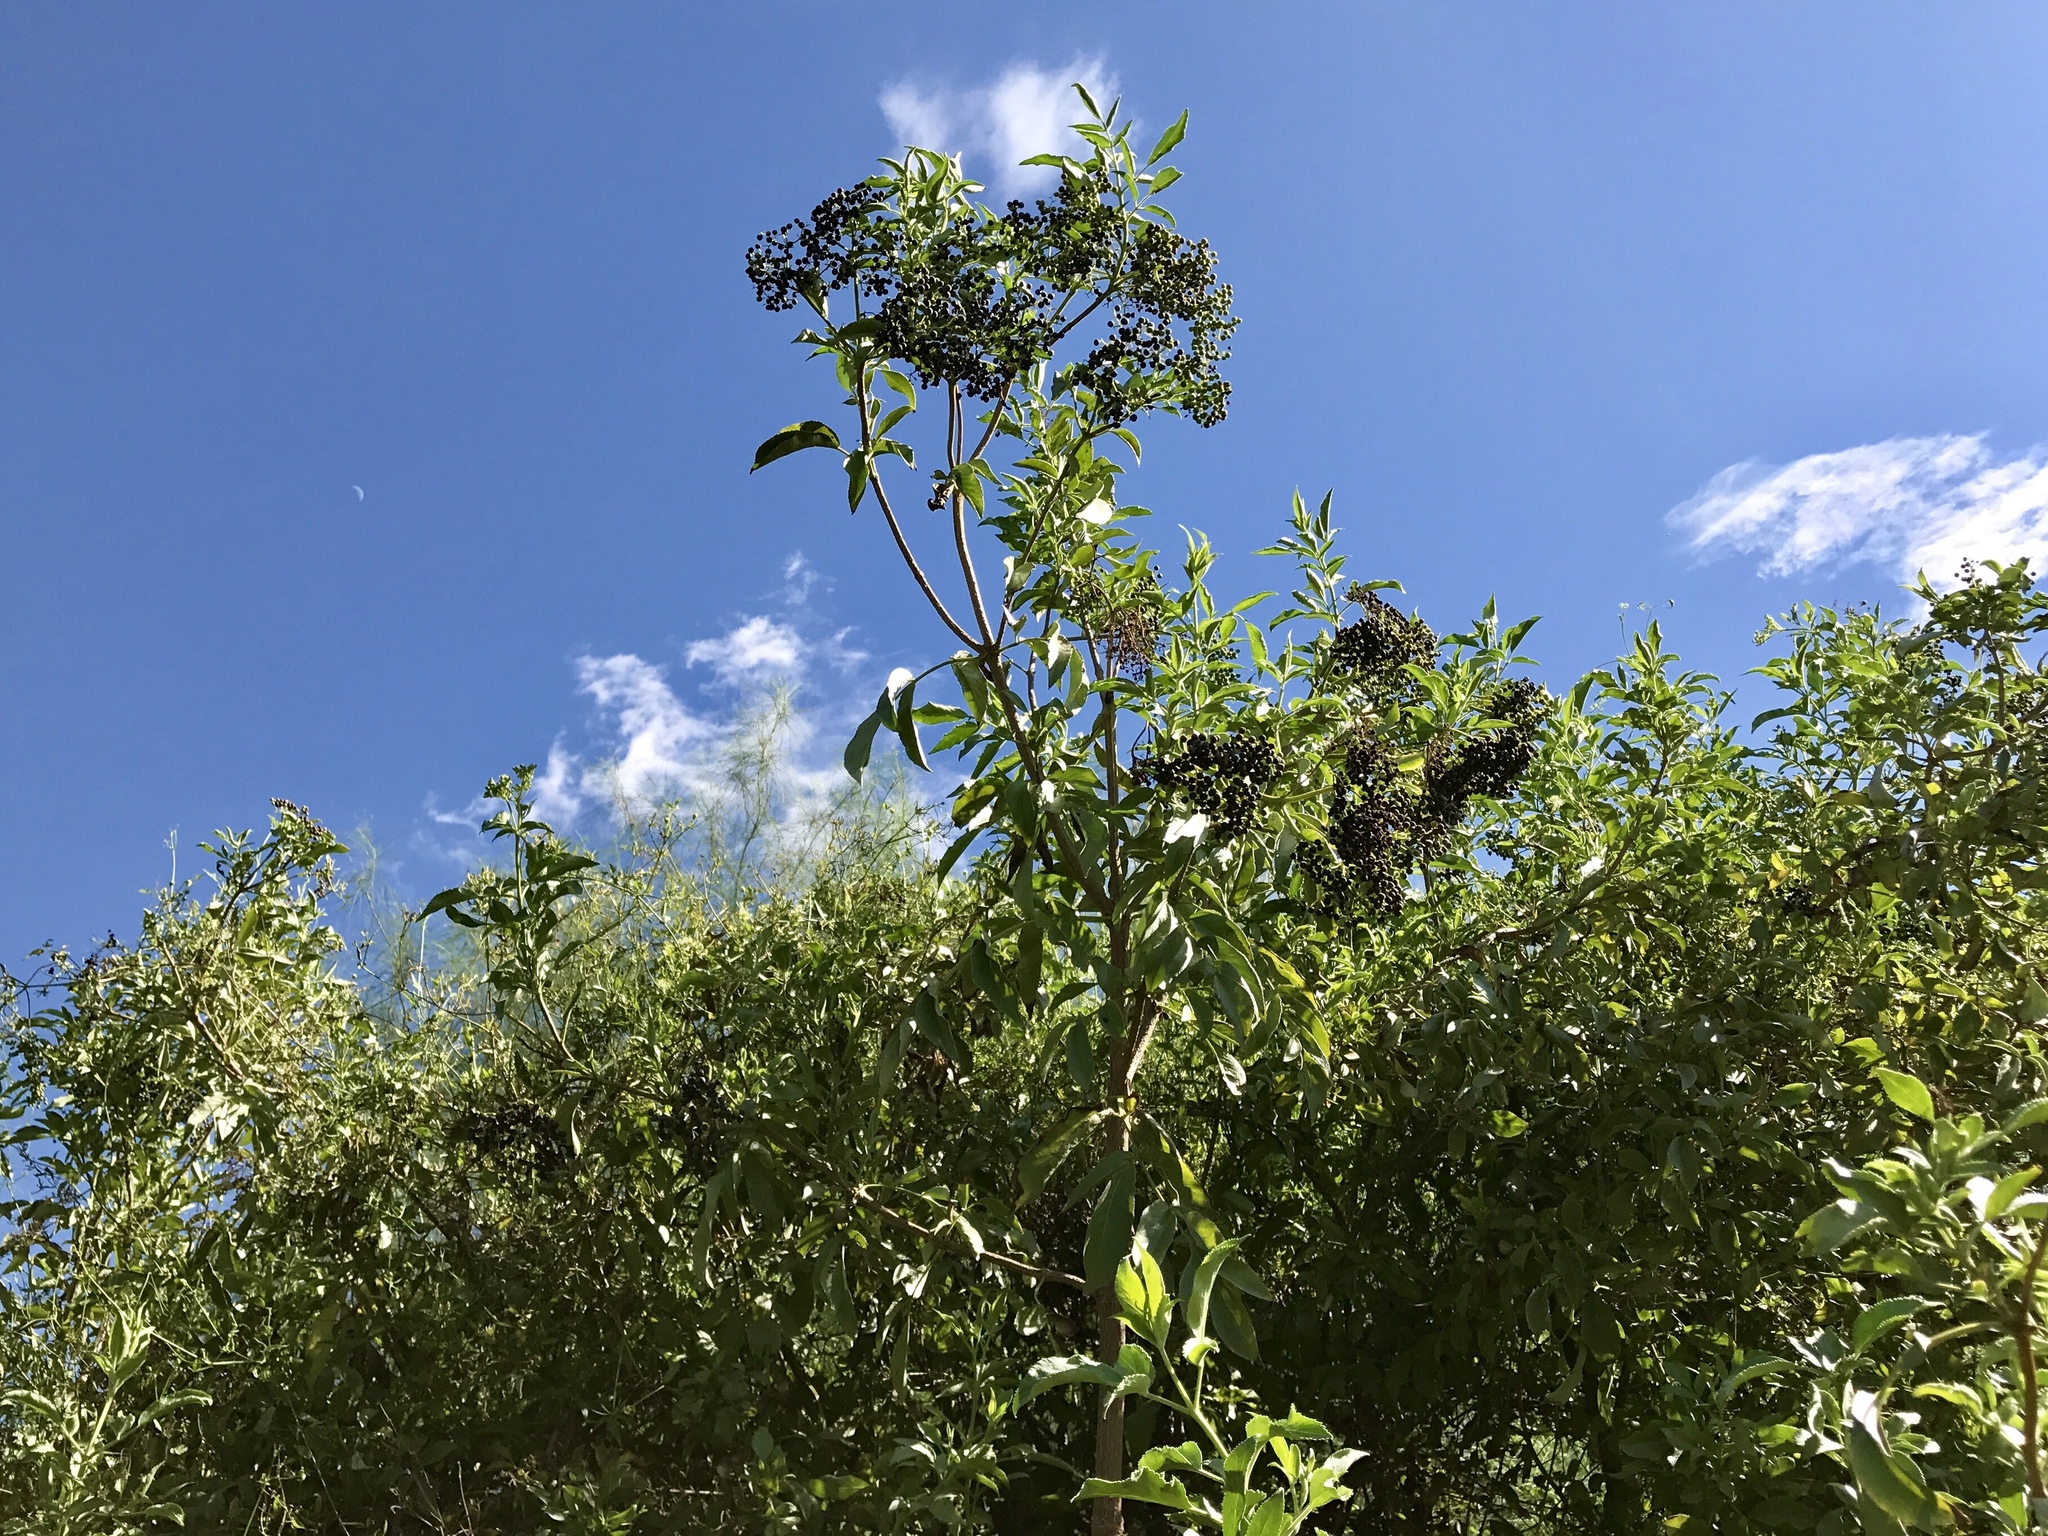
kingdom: Plantae
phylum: Tracheophyta
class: Magnoliopsida
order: Dipsacales
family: Viburnaceae
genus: Sambucus
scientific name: Sambucus cerulea
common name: Blue elder
